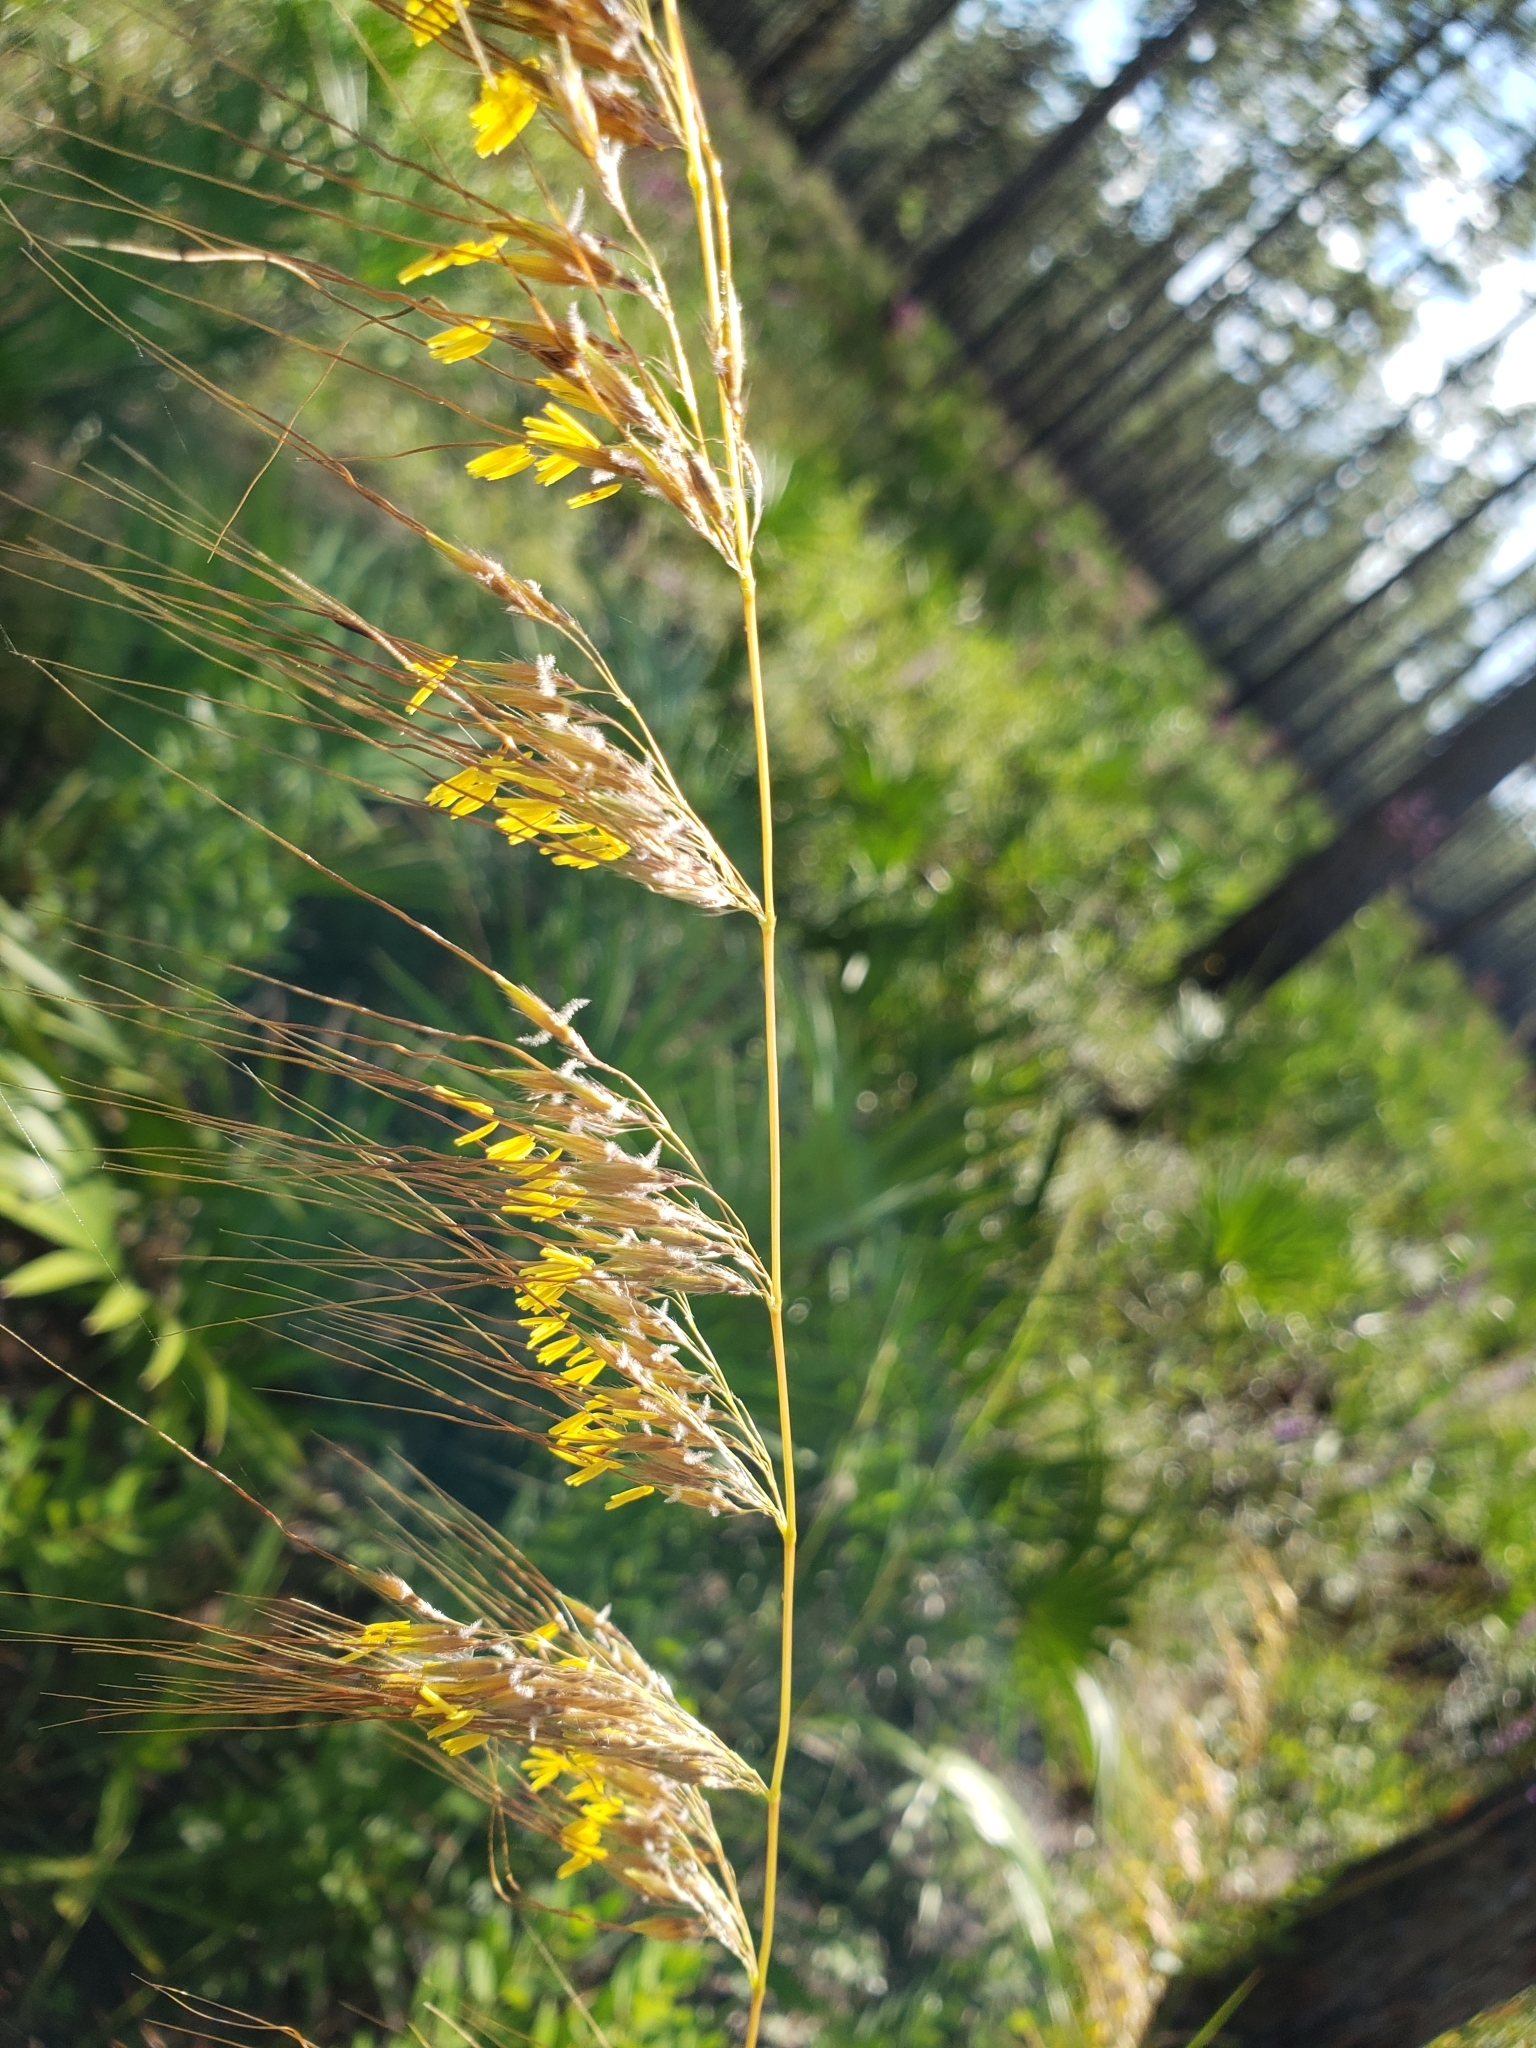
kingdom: Plantae
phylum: Tracheophyta
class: Liliopsida
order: Poales
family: Poaceae
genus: Sorghastrum
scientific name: Sorghastrum secundum
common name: Lopsided indian grass
